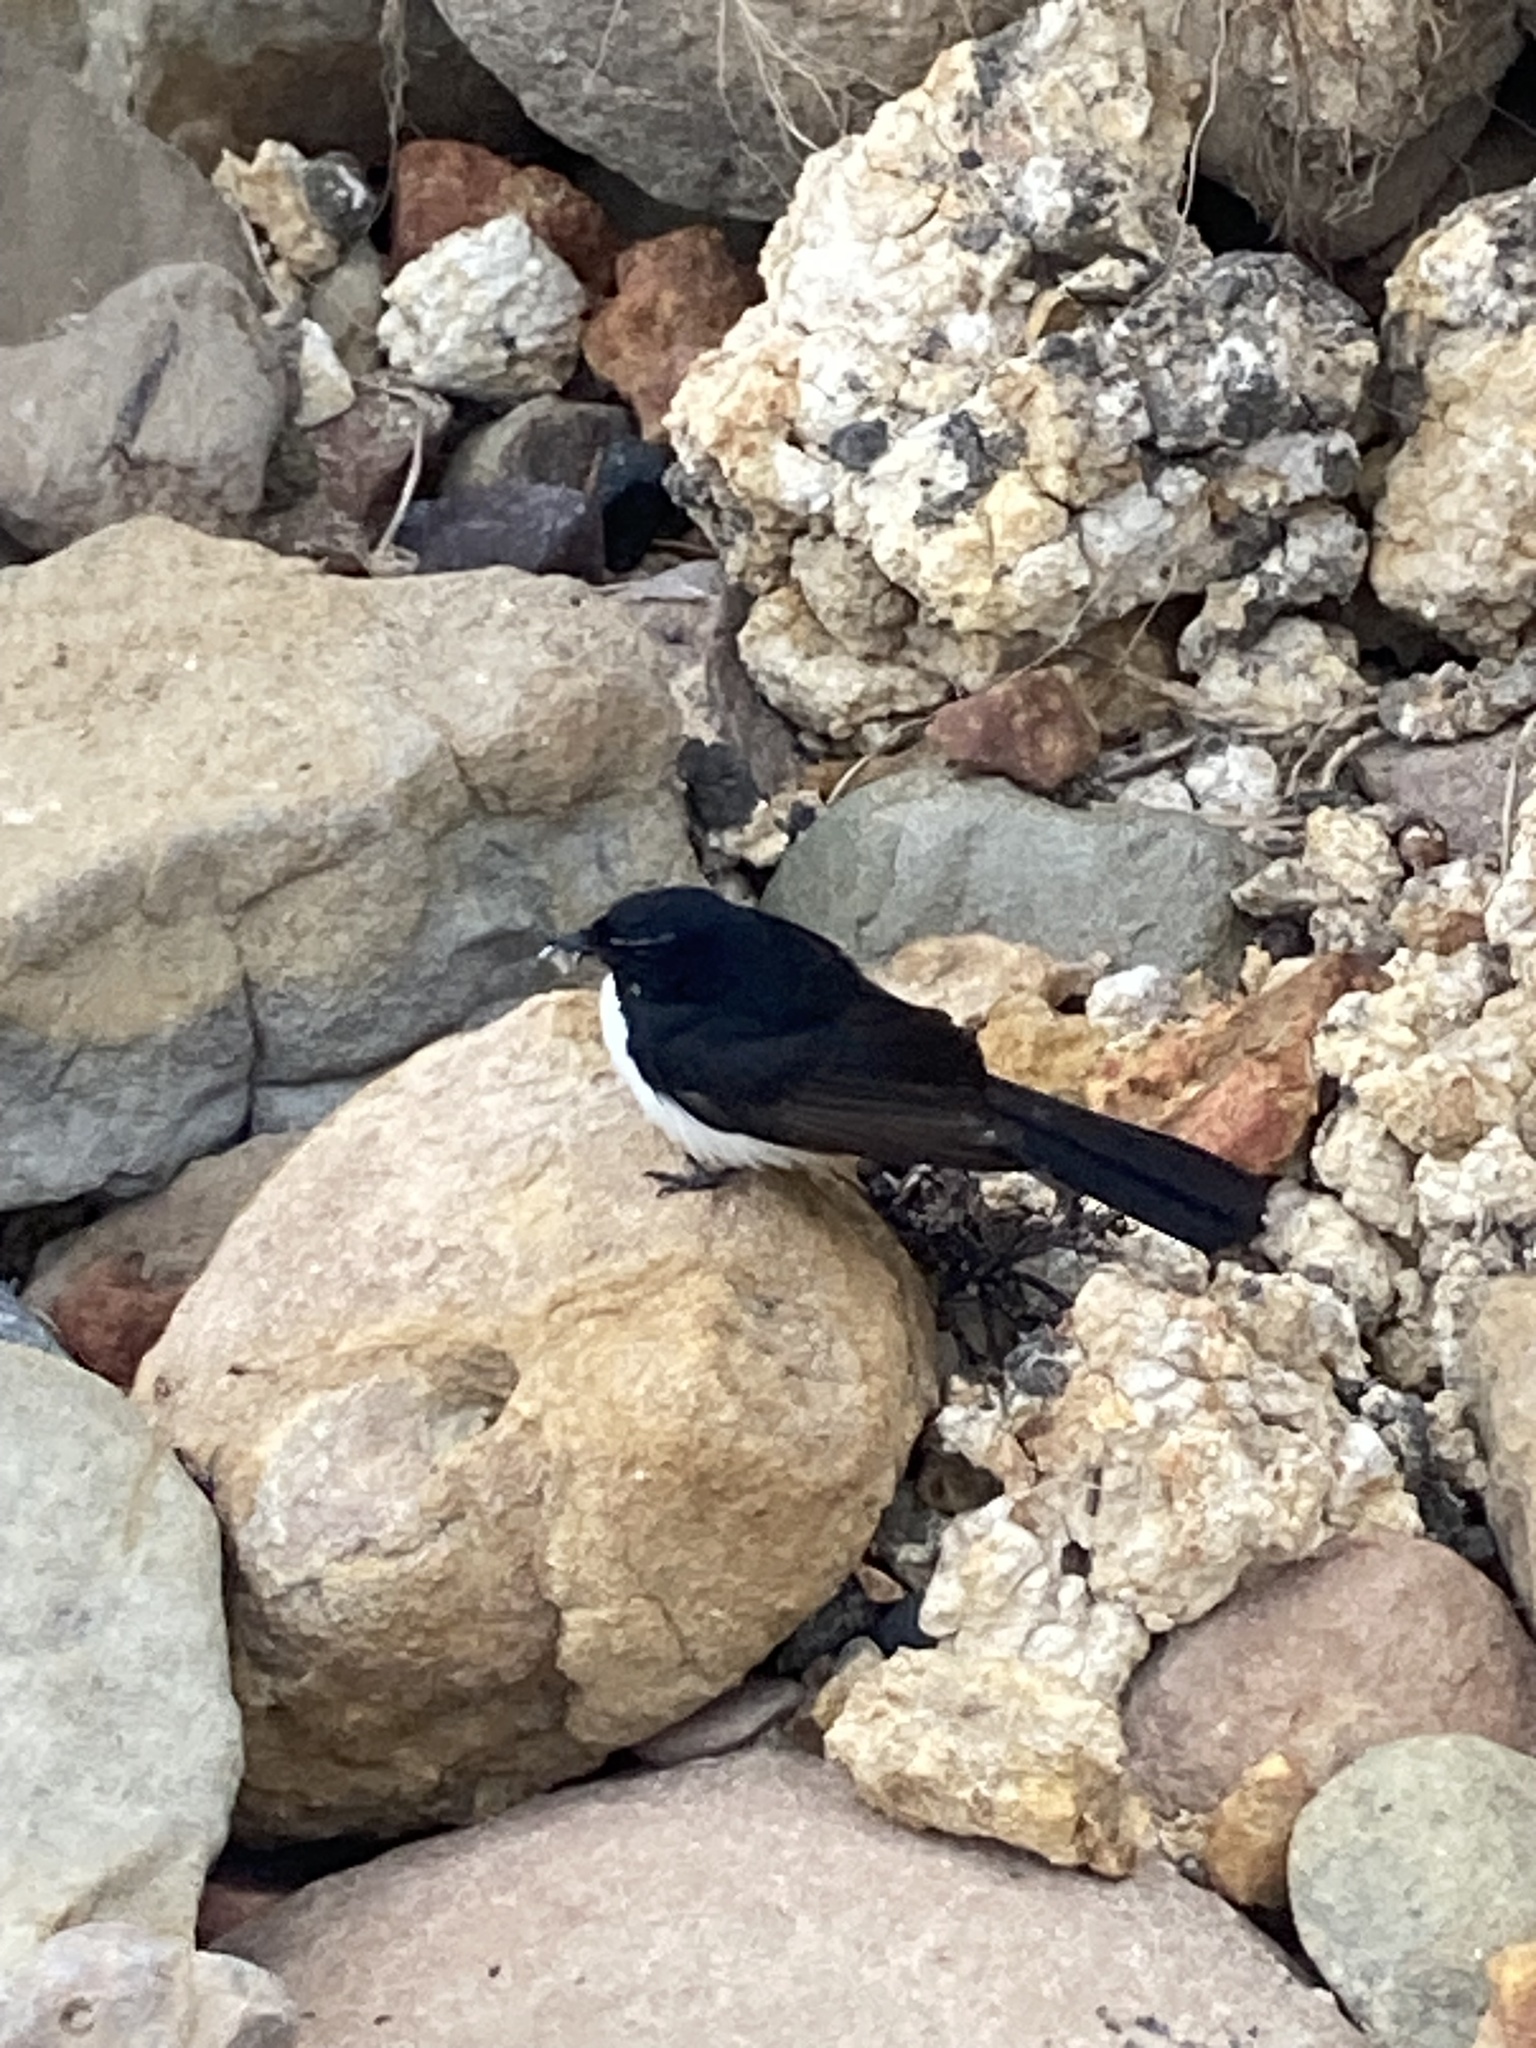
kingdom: Animalia
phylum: Chordata
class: Aves
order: Passeriformes
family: Rhipiduridae
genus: Rhipidura
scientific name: Rhipidura leucophrys
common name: Willie wagtail
